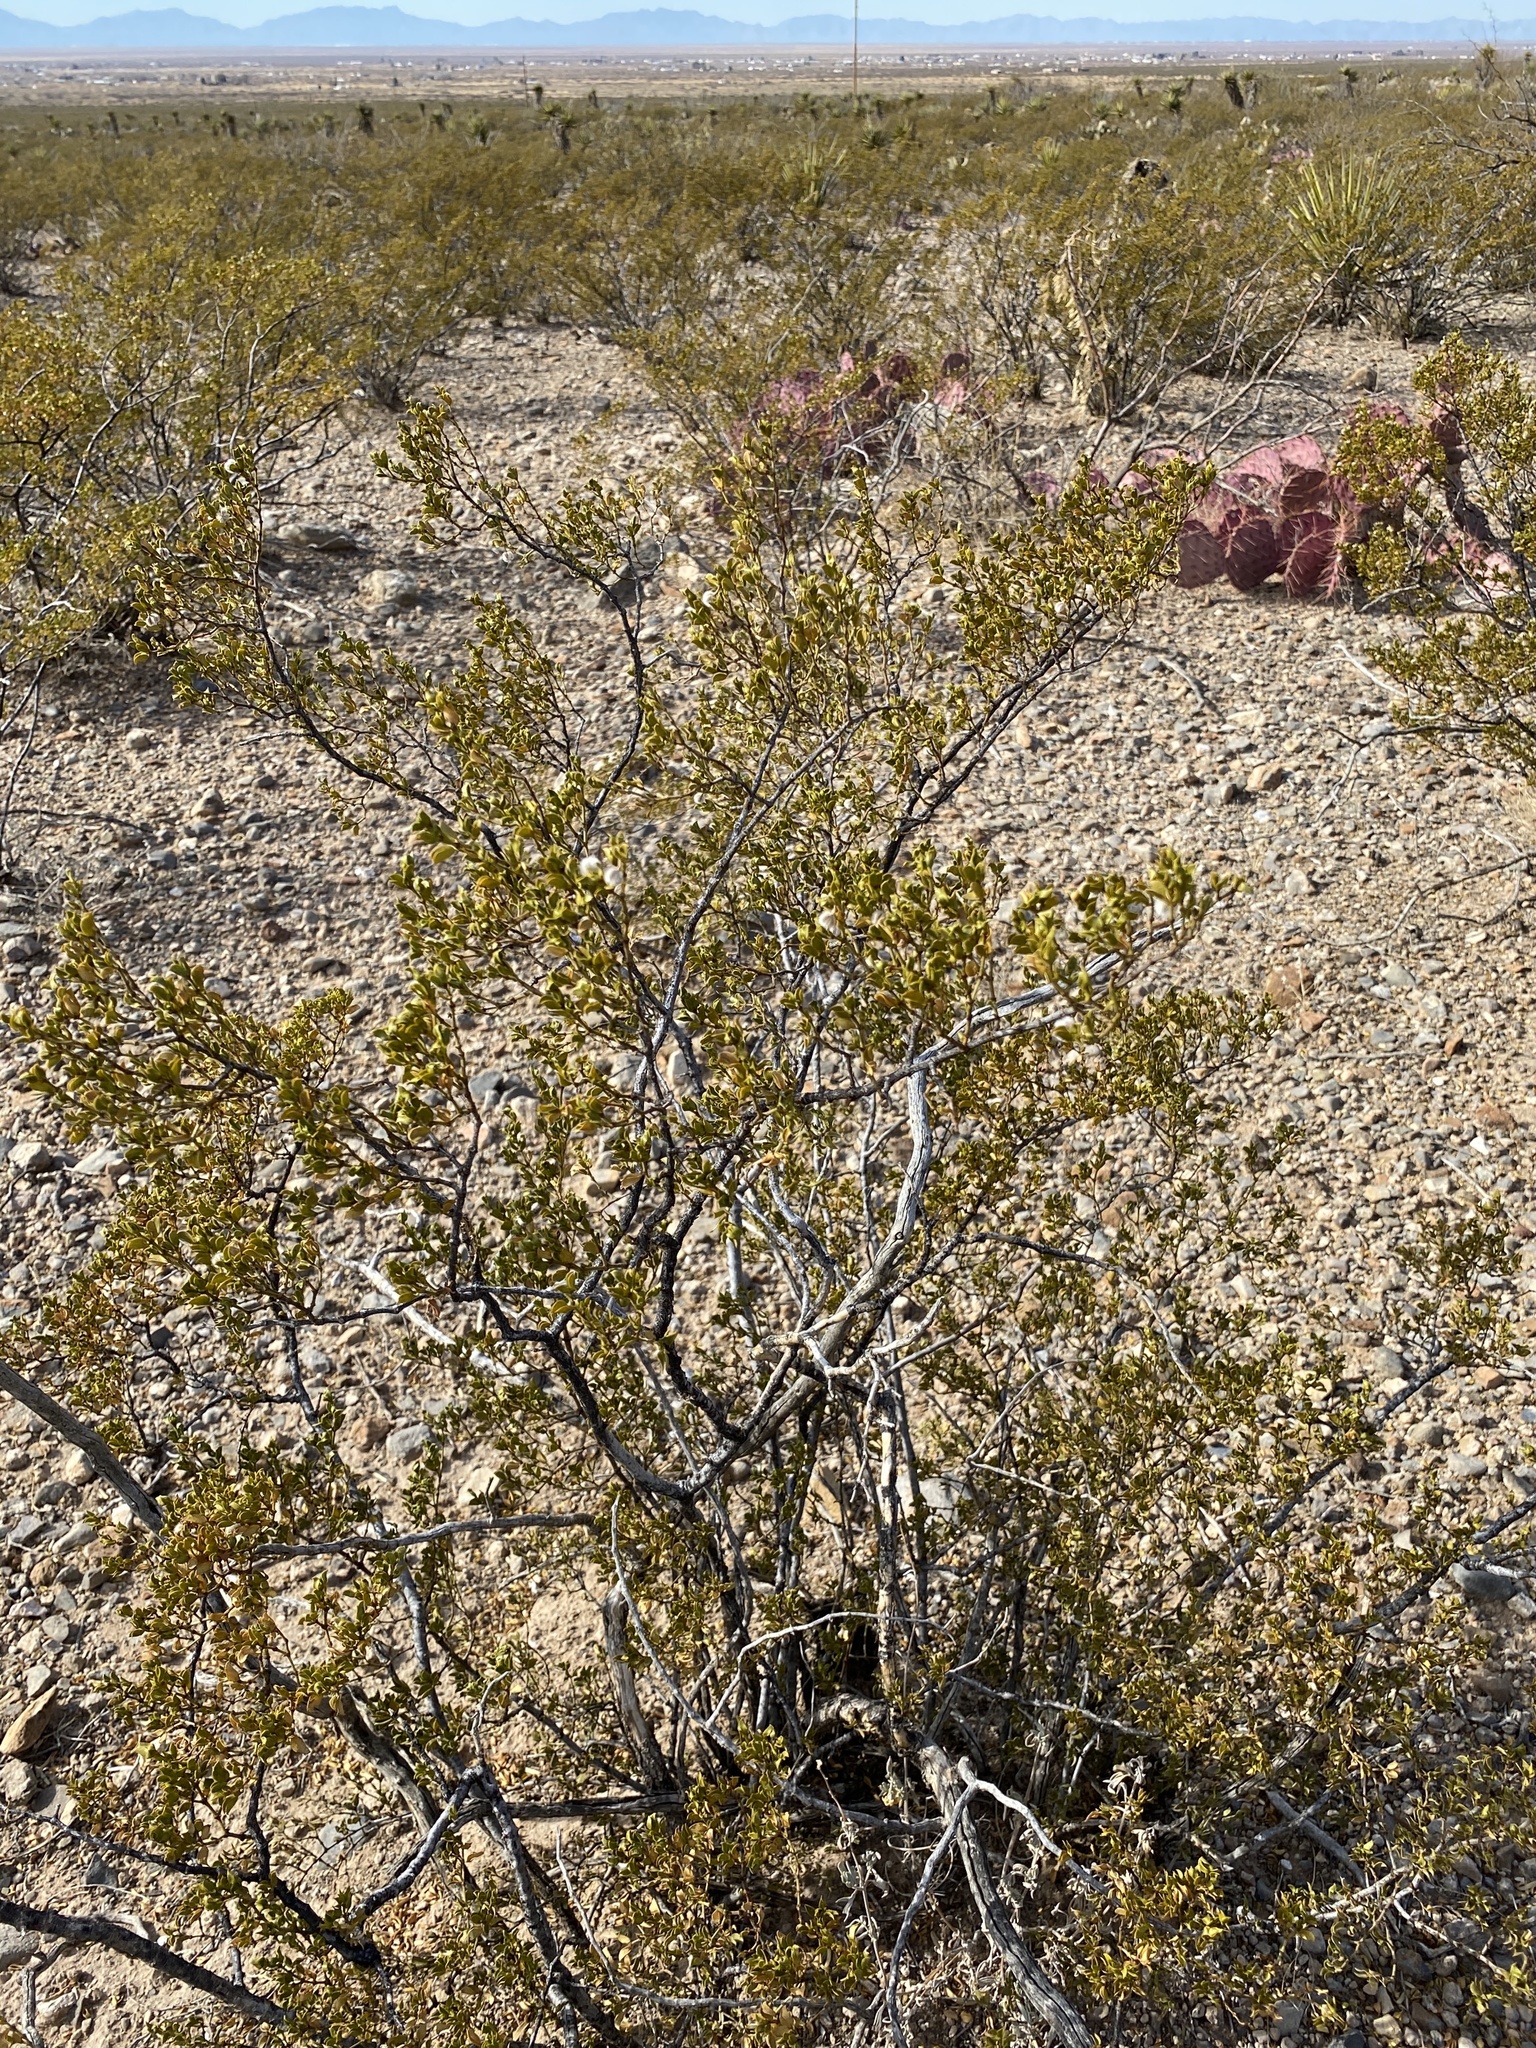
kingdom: Plantae
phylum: Tracheophyta
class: Magnoliopsida
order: Zygophyllales
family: Zygophyllaceae
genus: Larrea
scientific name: Larrea tridentata
